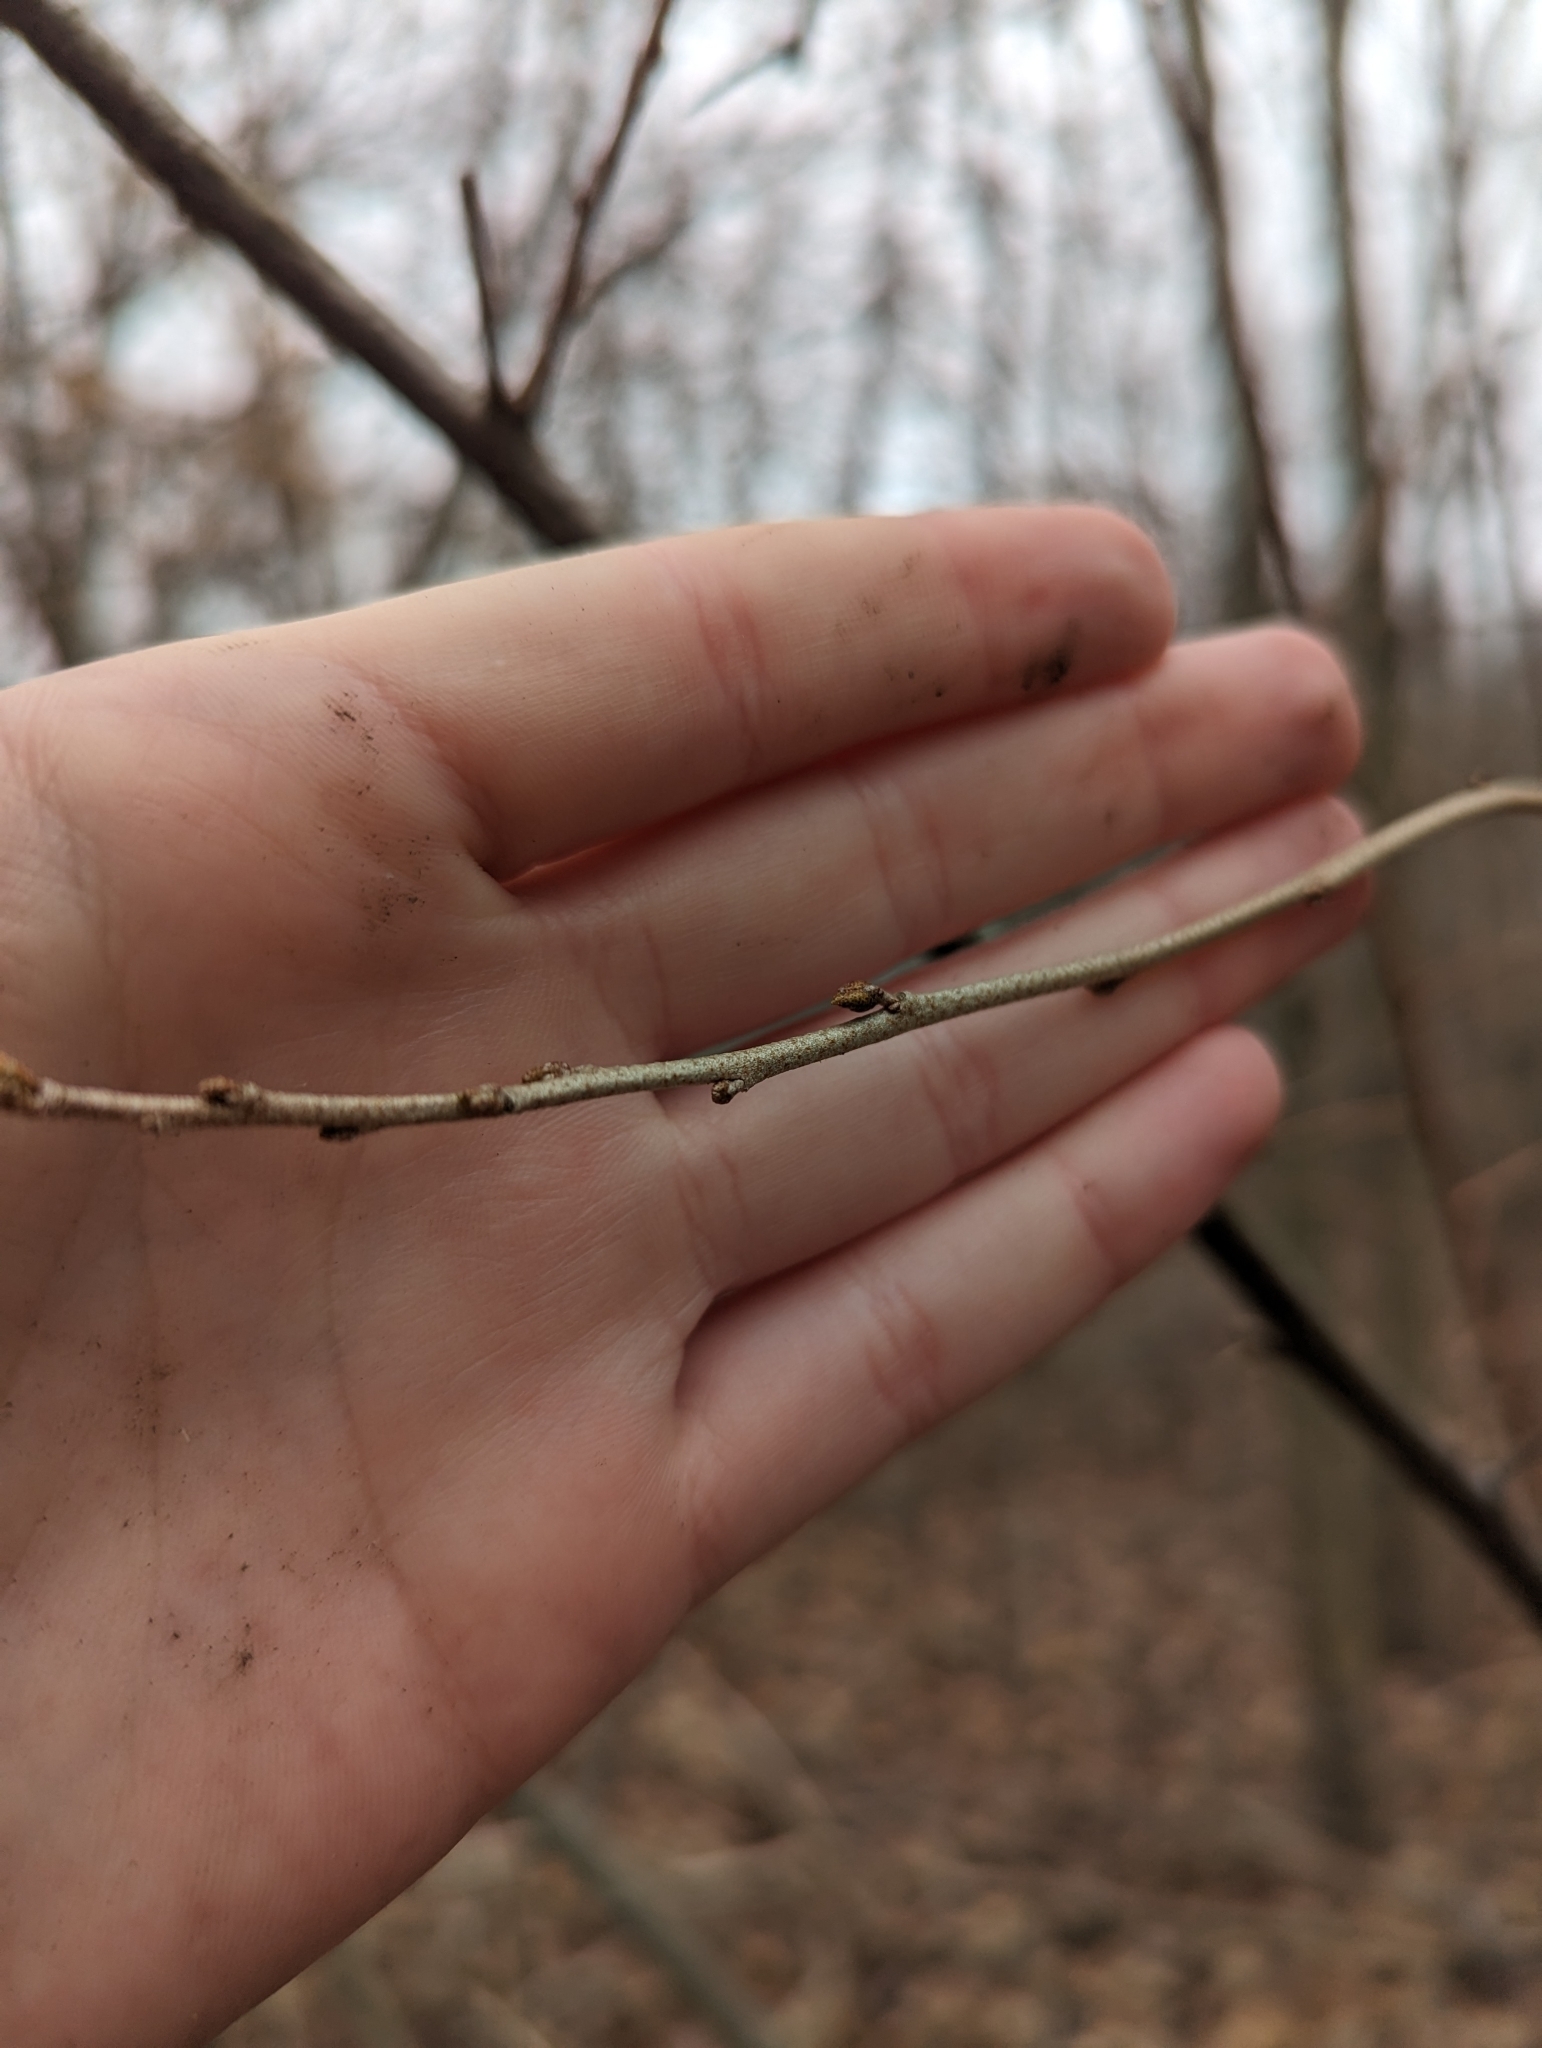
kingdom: Plantae
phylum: Tracheophyta
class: Magnoliopsida
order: Rosales
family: Elaeagnaceae
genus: Elaeagnus
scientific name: Elaeagnus umbellata
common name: Autumn olive
